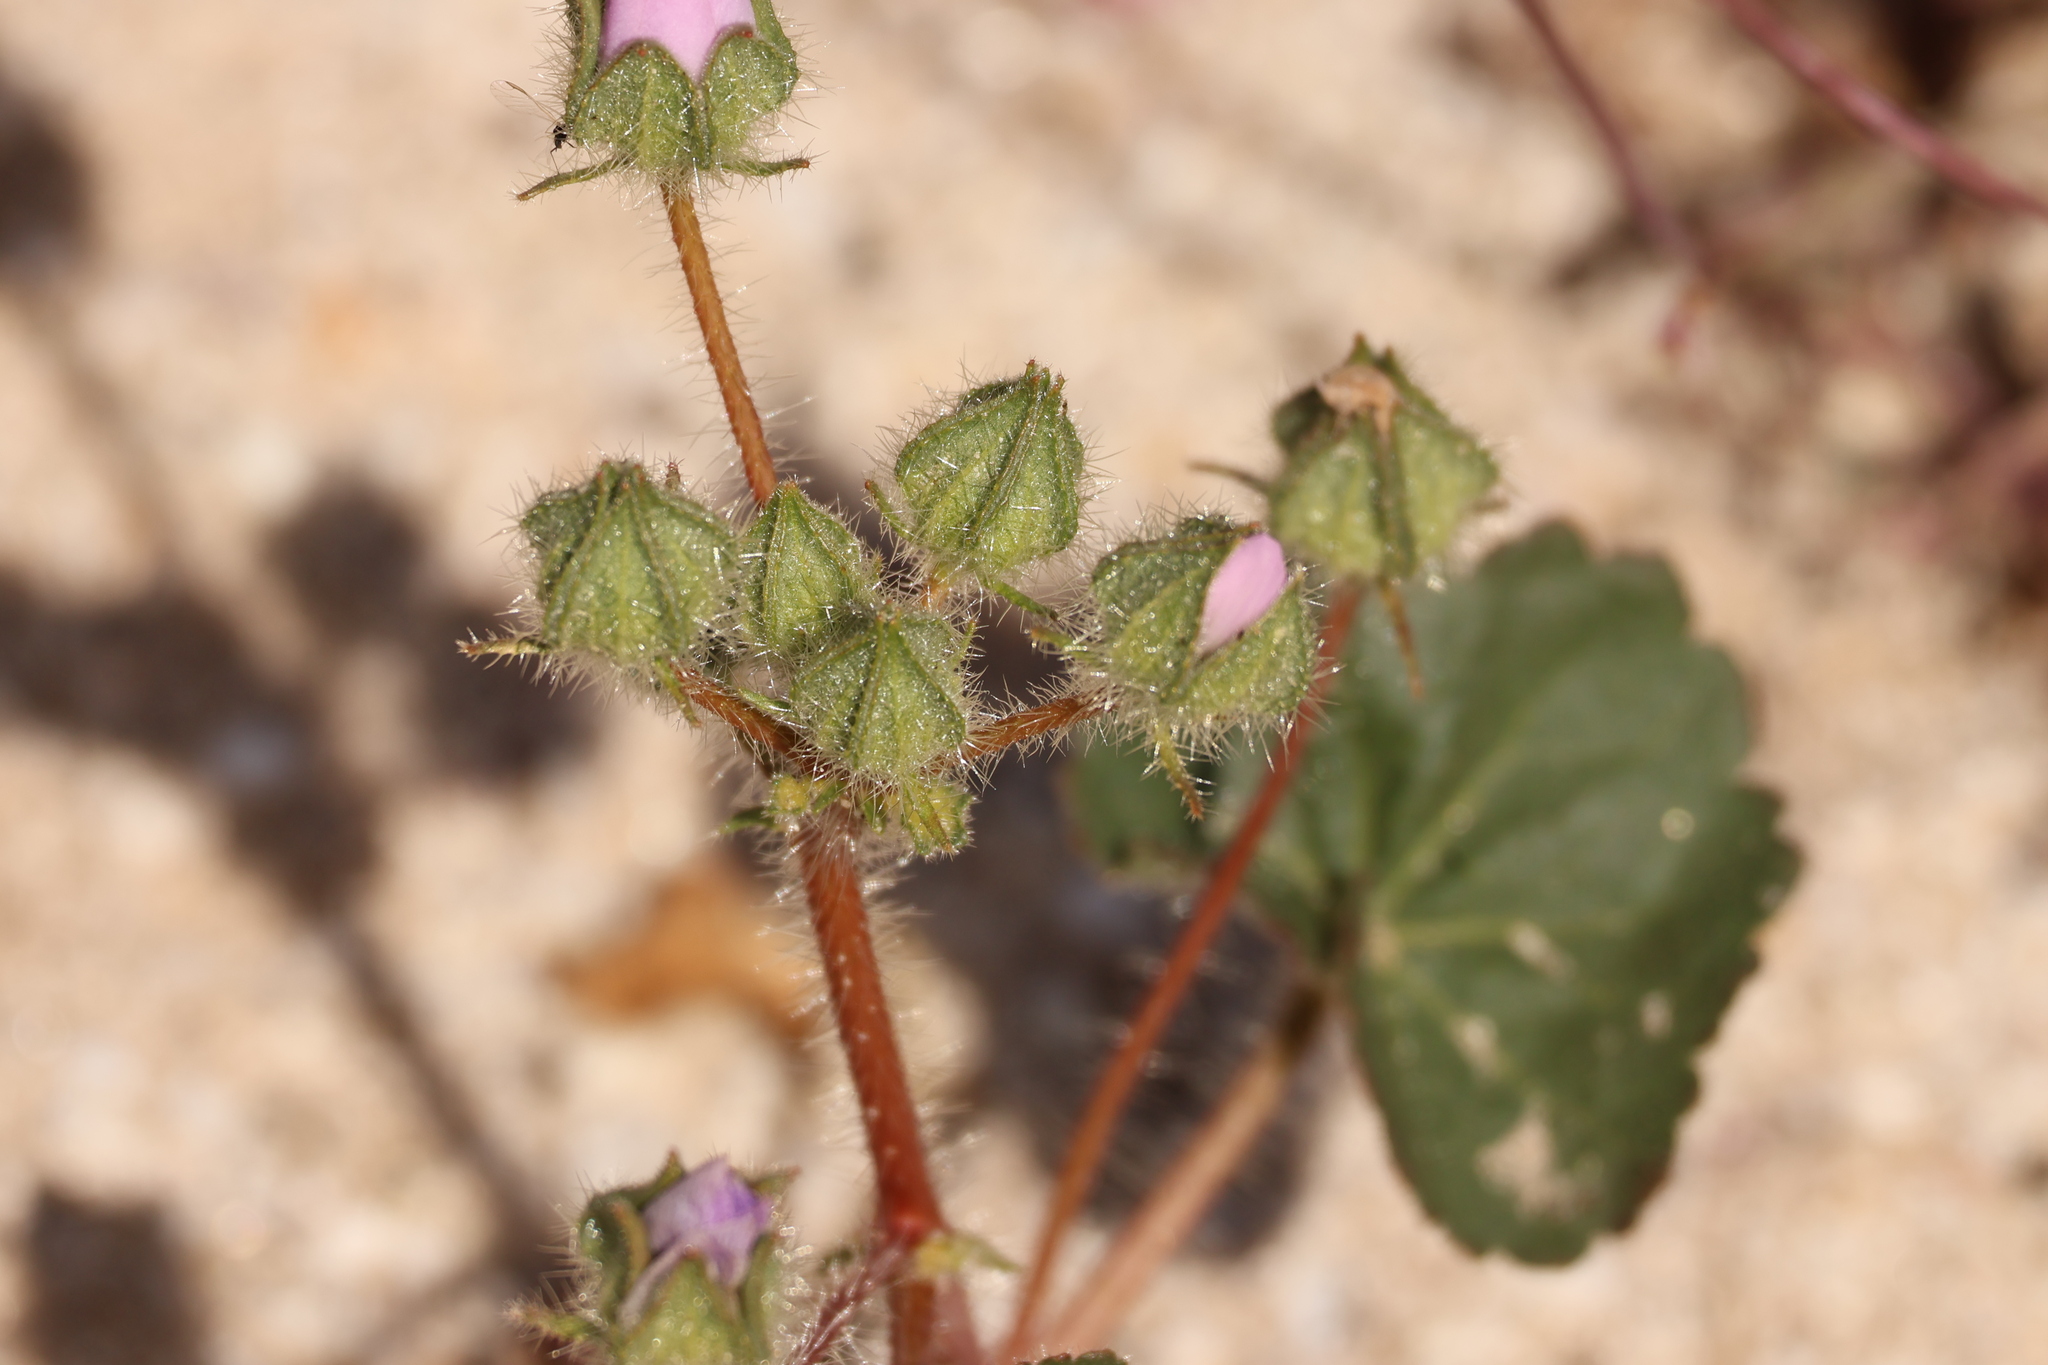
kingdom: Plantae
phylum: Tracheophyta
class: Magnoliopsida
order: Malvales
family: Malvaceae
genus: Eremalche
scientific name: Eremalche rotundifolia
